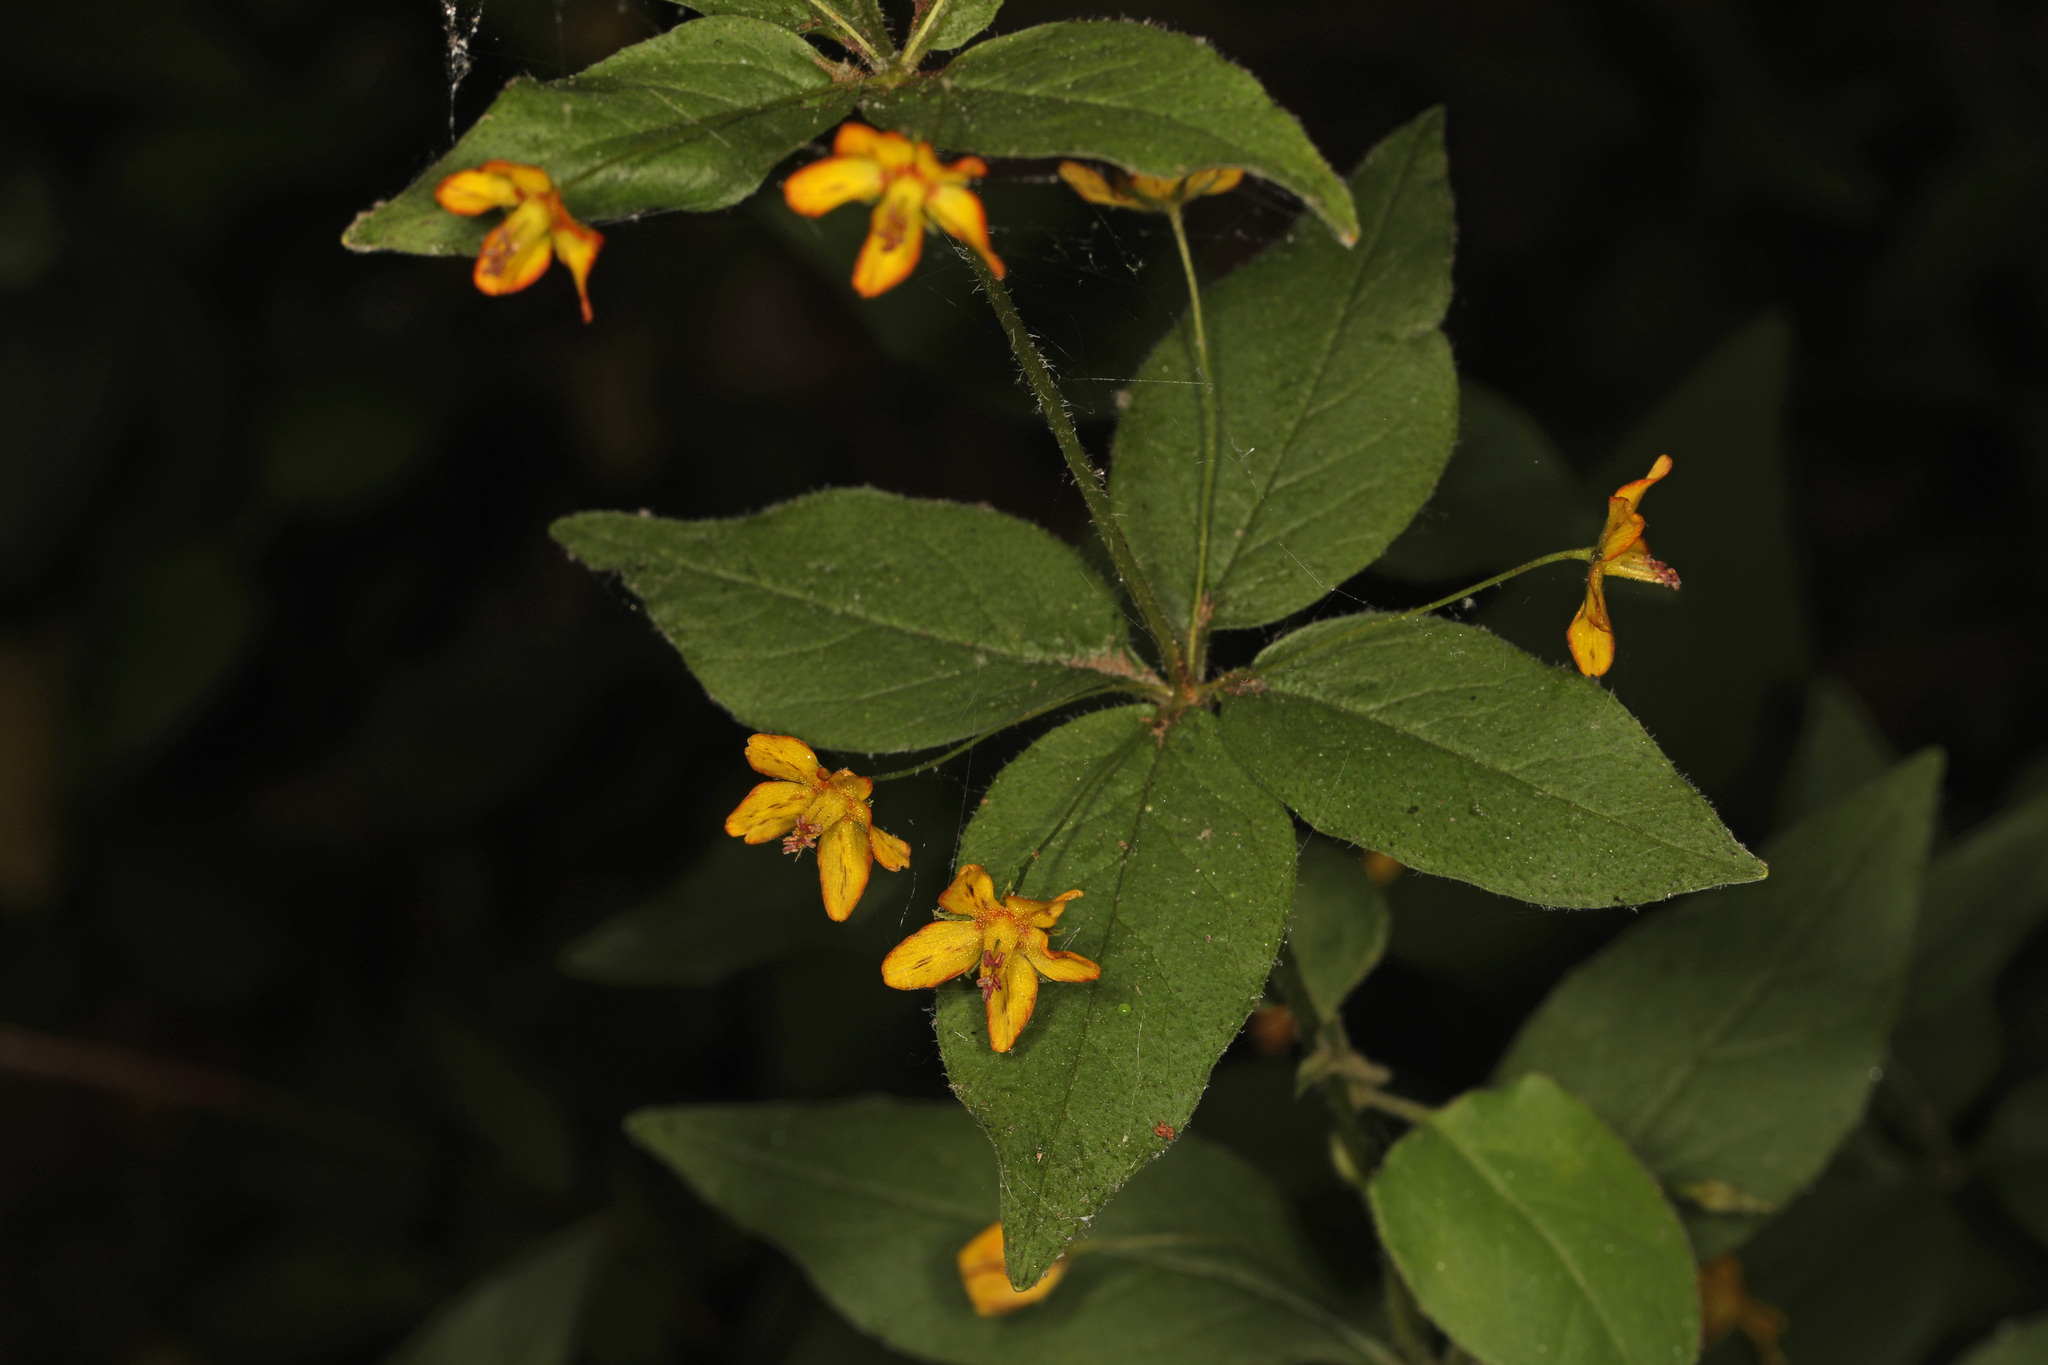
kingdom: Plantae
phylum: Tracheophyta
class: Magnoliopsida
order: Ericales
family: Primulaceae
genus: Lysimachia
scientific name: Lysimachia quadrifolia
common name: Whorled loosestrife
